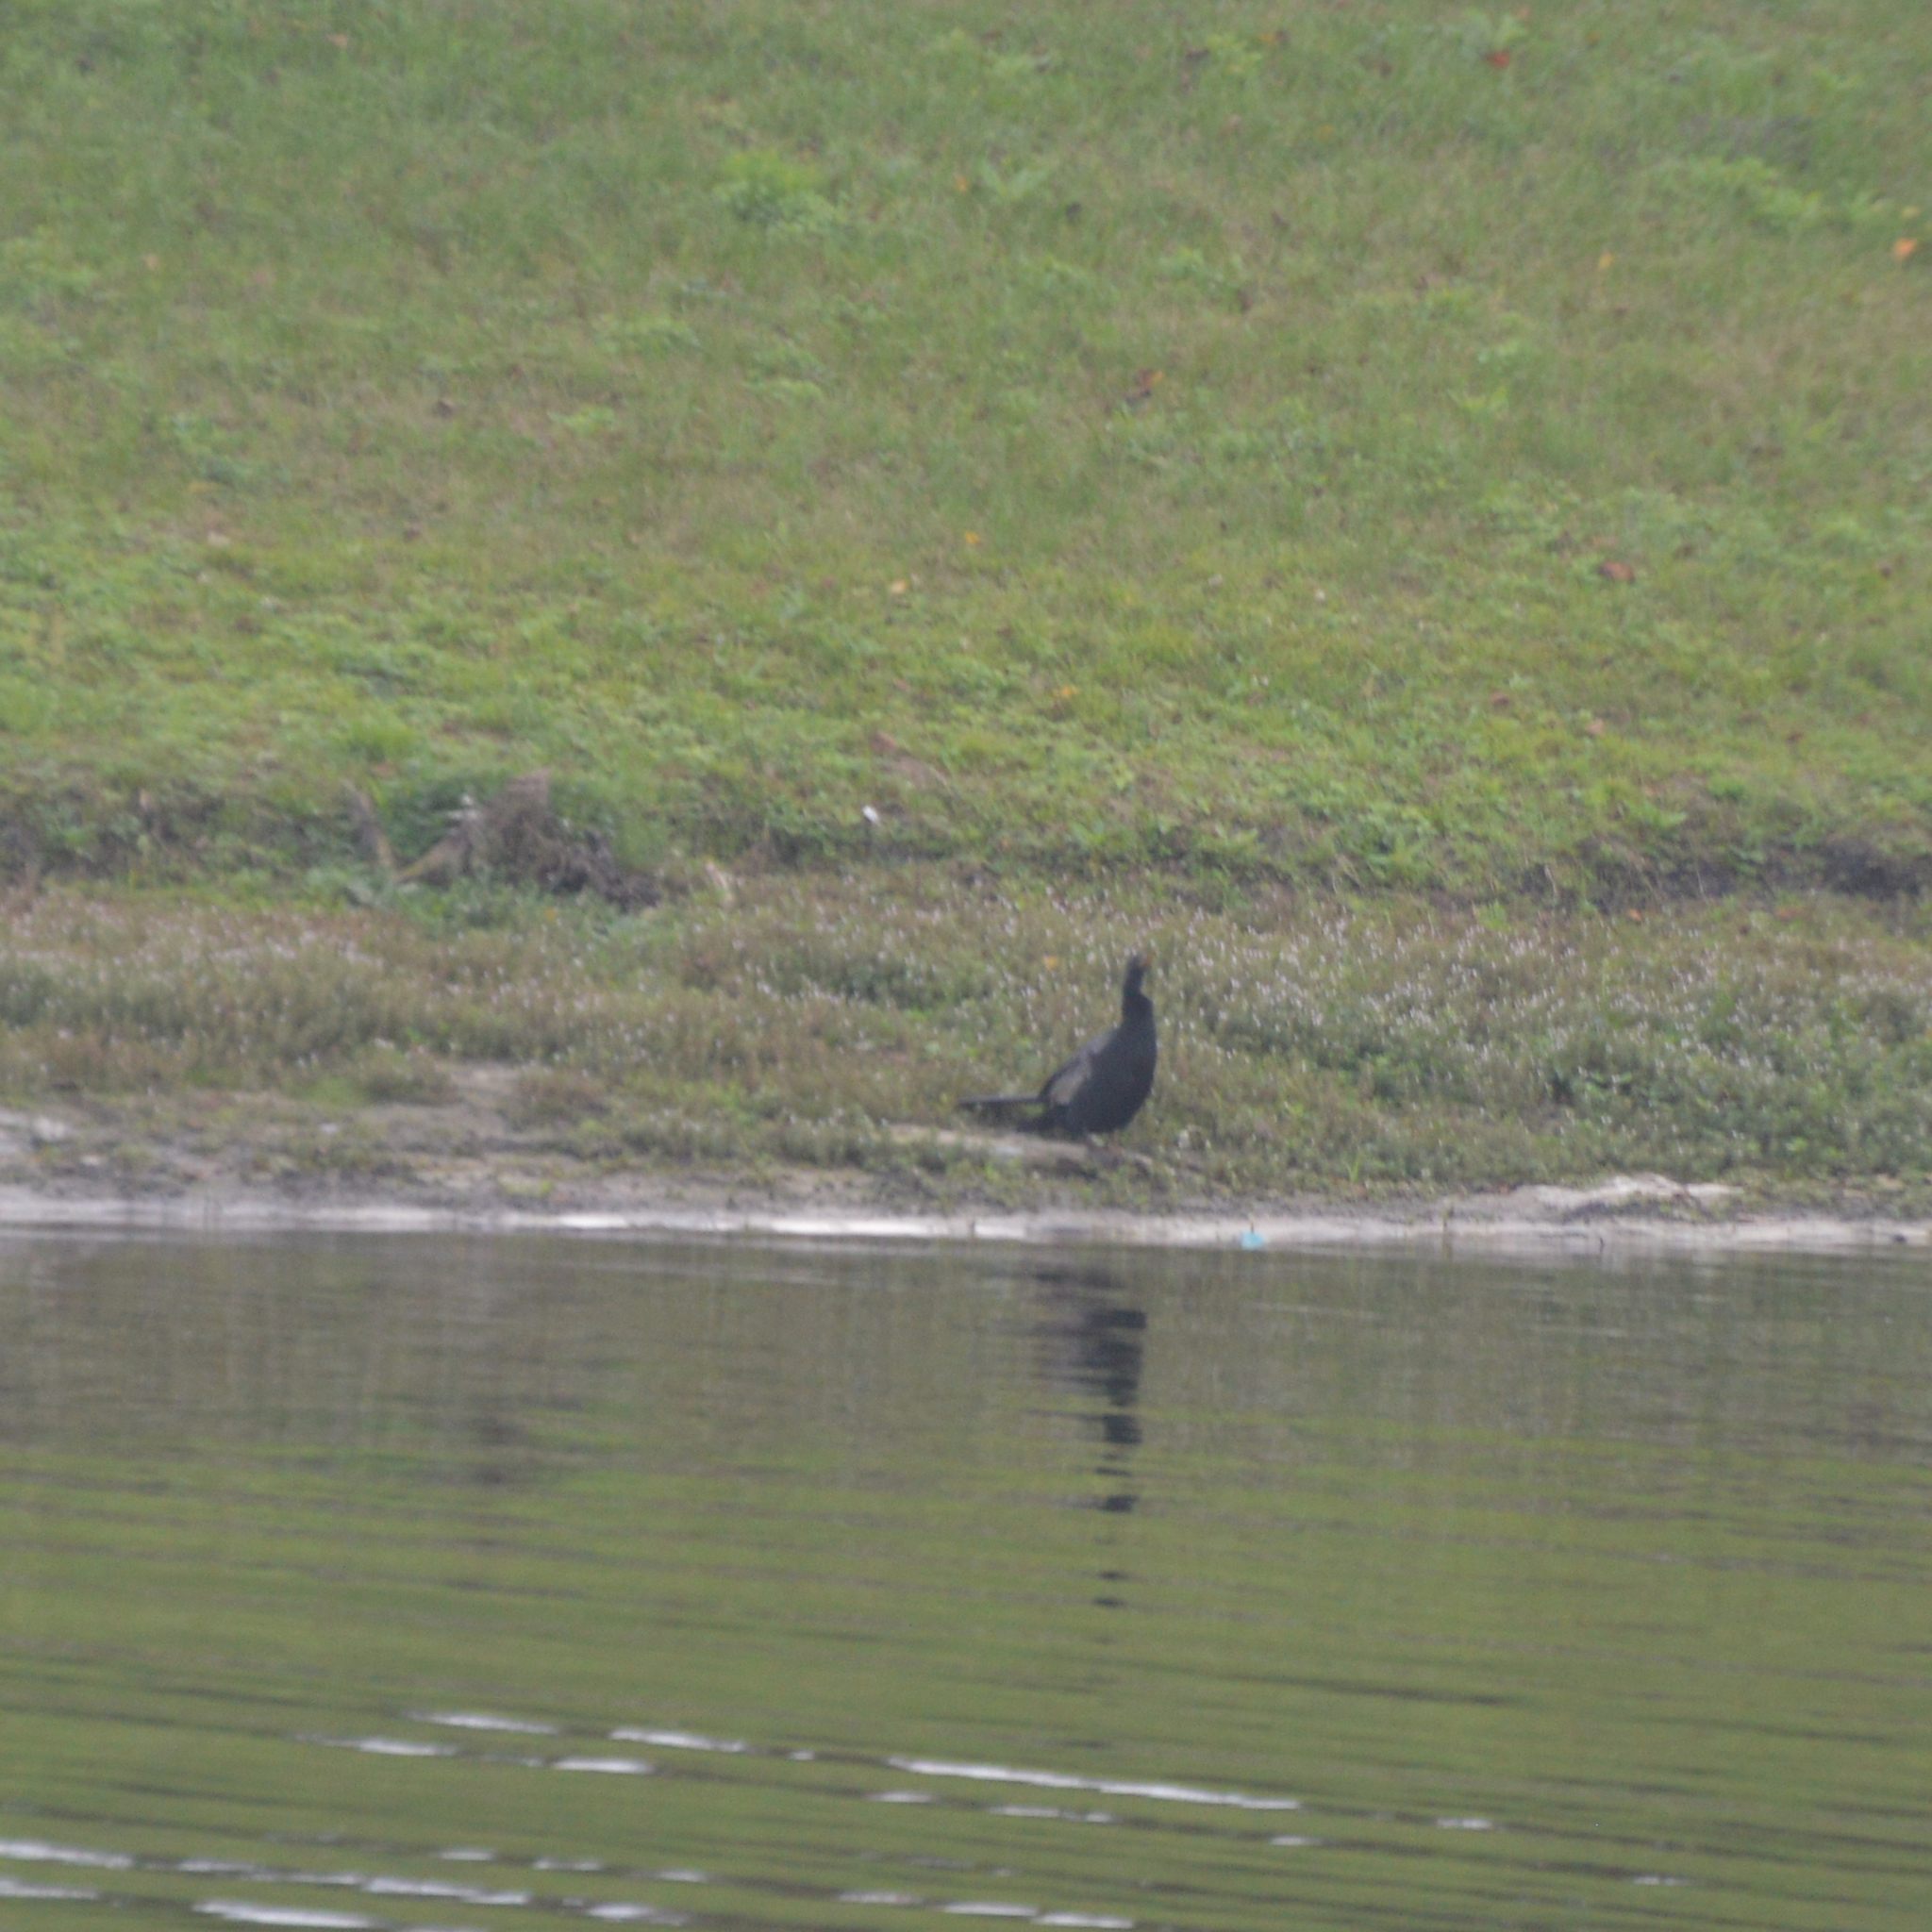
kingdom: Animalia
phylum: Chordata
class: Aves
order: Suliformes
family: Anhingidae
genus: Anhinga
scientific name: Anhinga anhinga
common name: Anhinga
